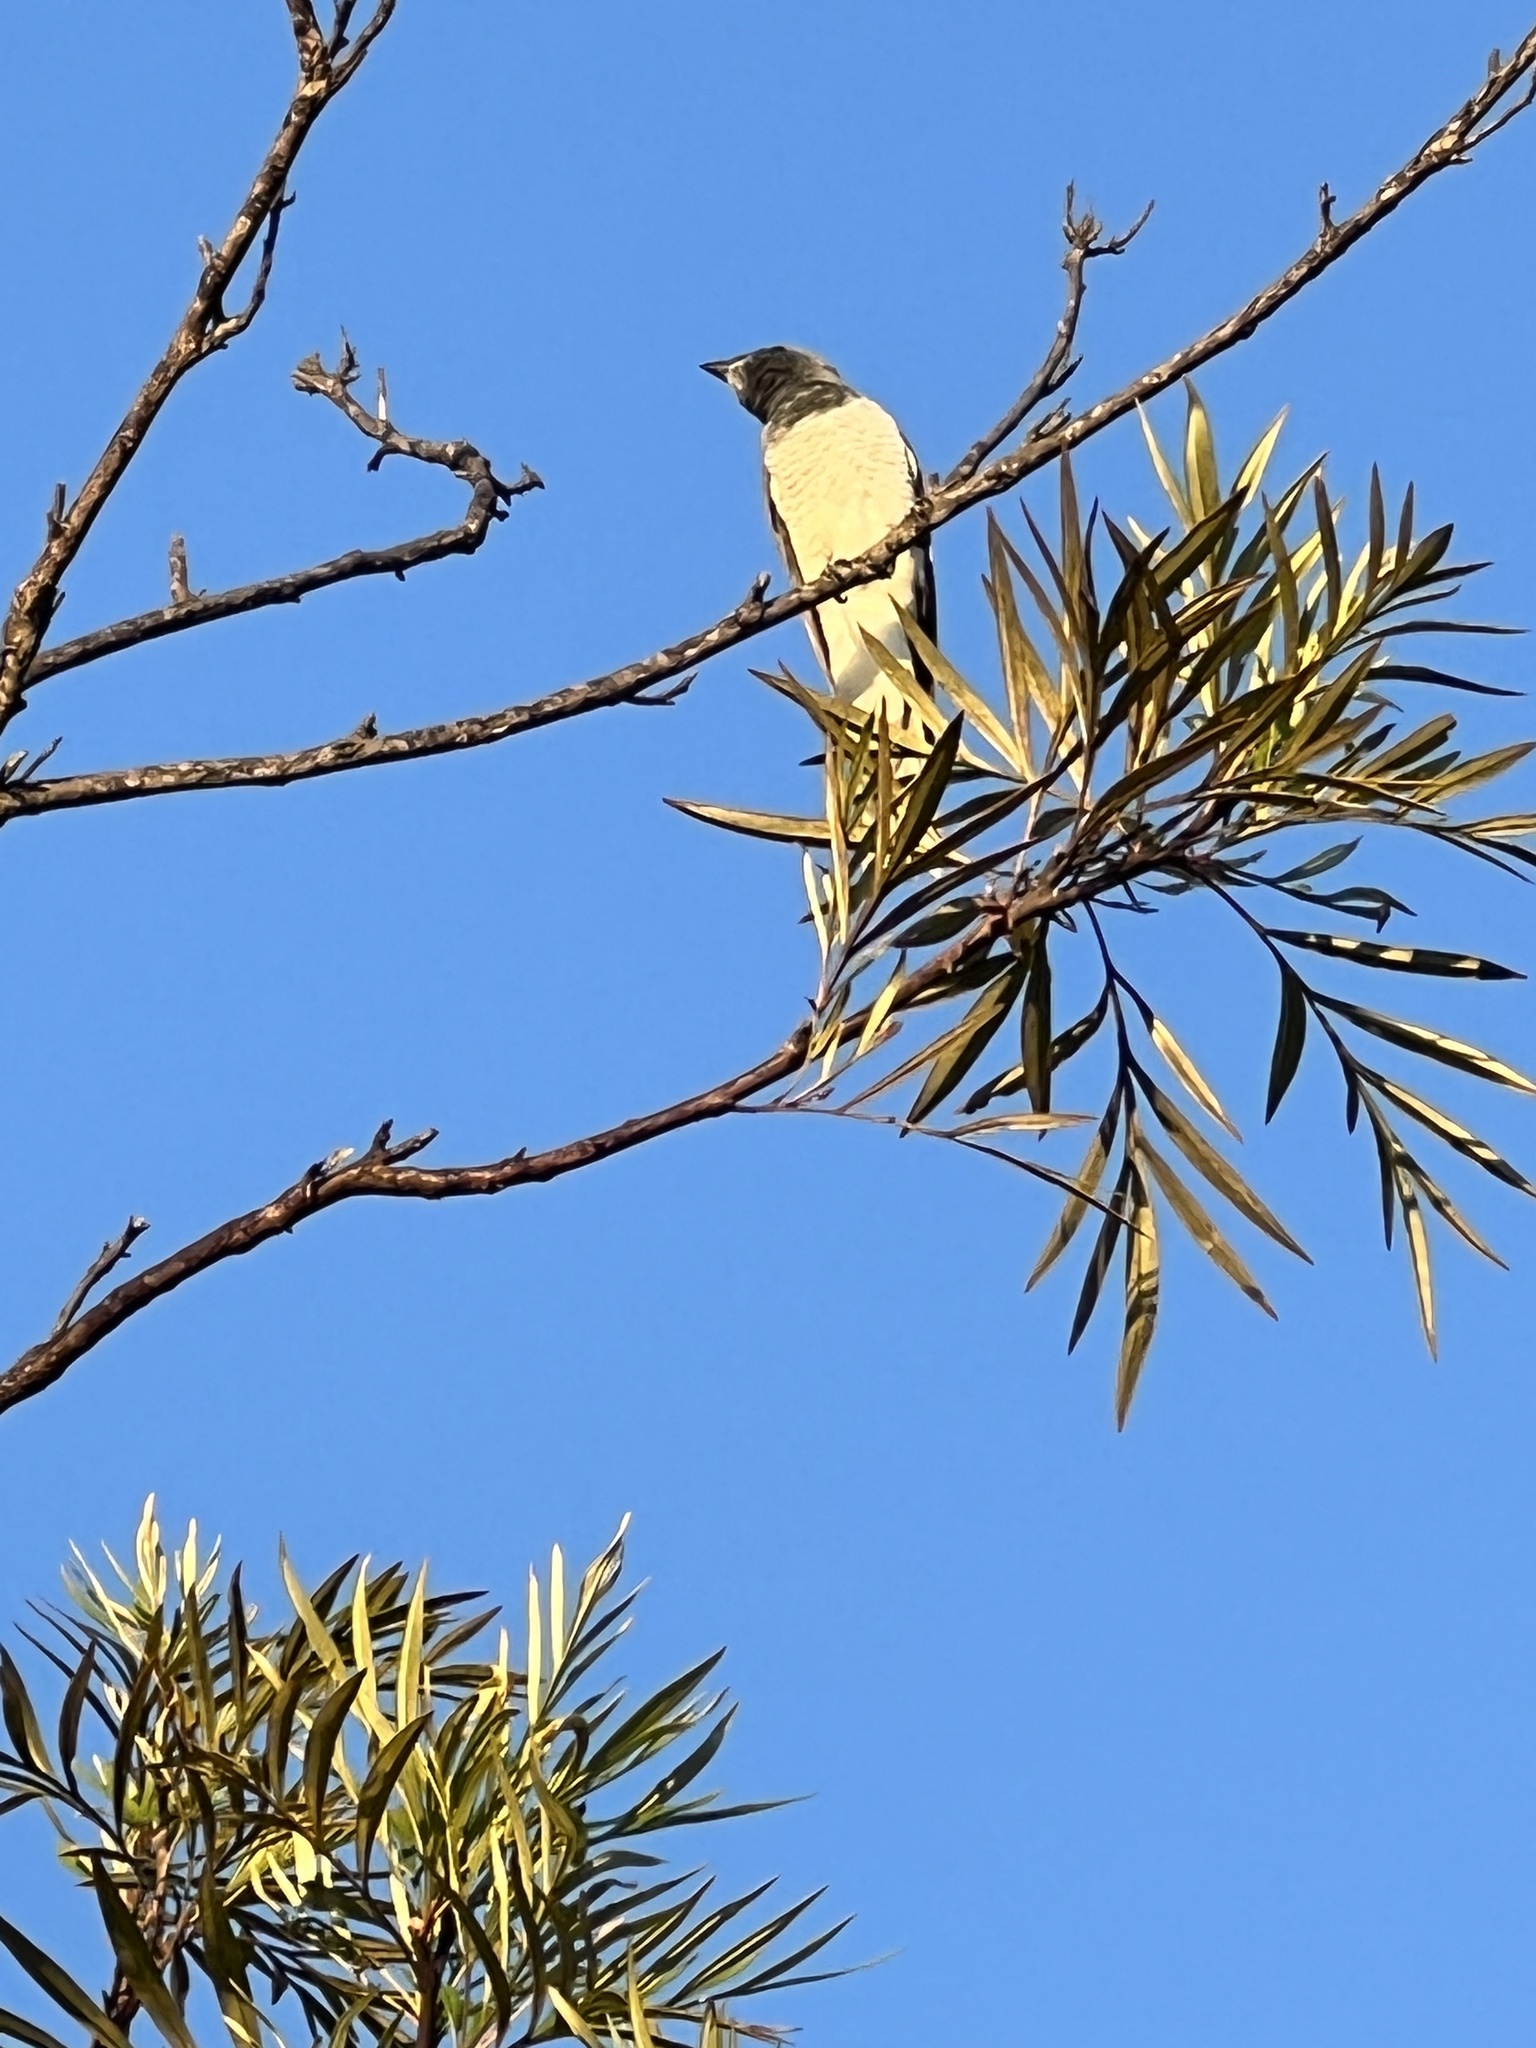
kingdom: Animalia
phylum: Chordata
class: Aves
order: Passeriformes
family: Campephagidae
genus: Coracina
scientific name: Coracina novaehollandiae
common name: Black-faced cuckooshrike
